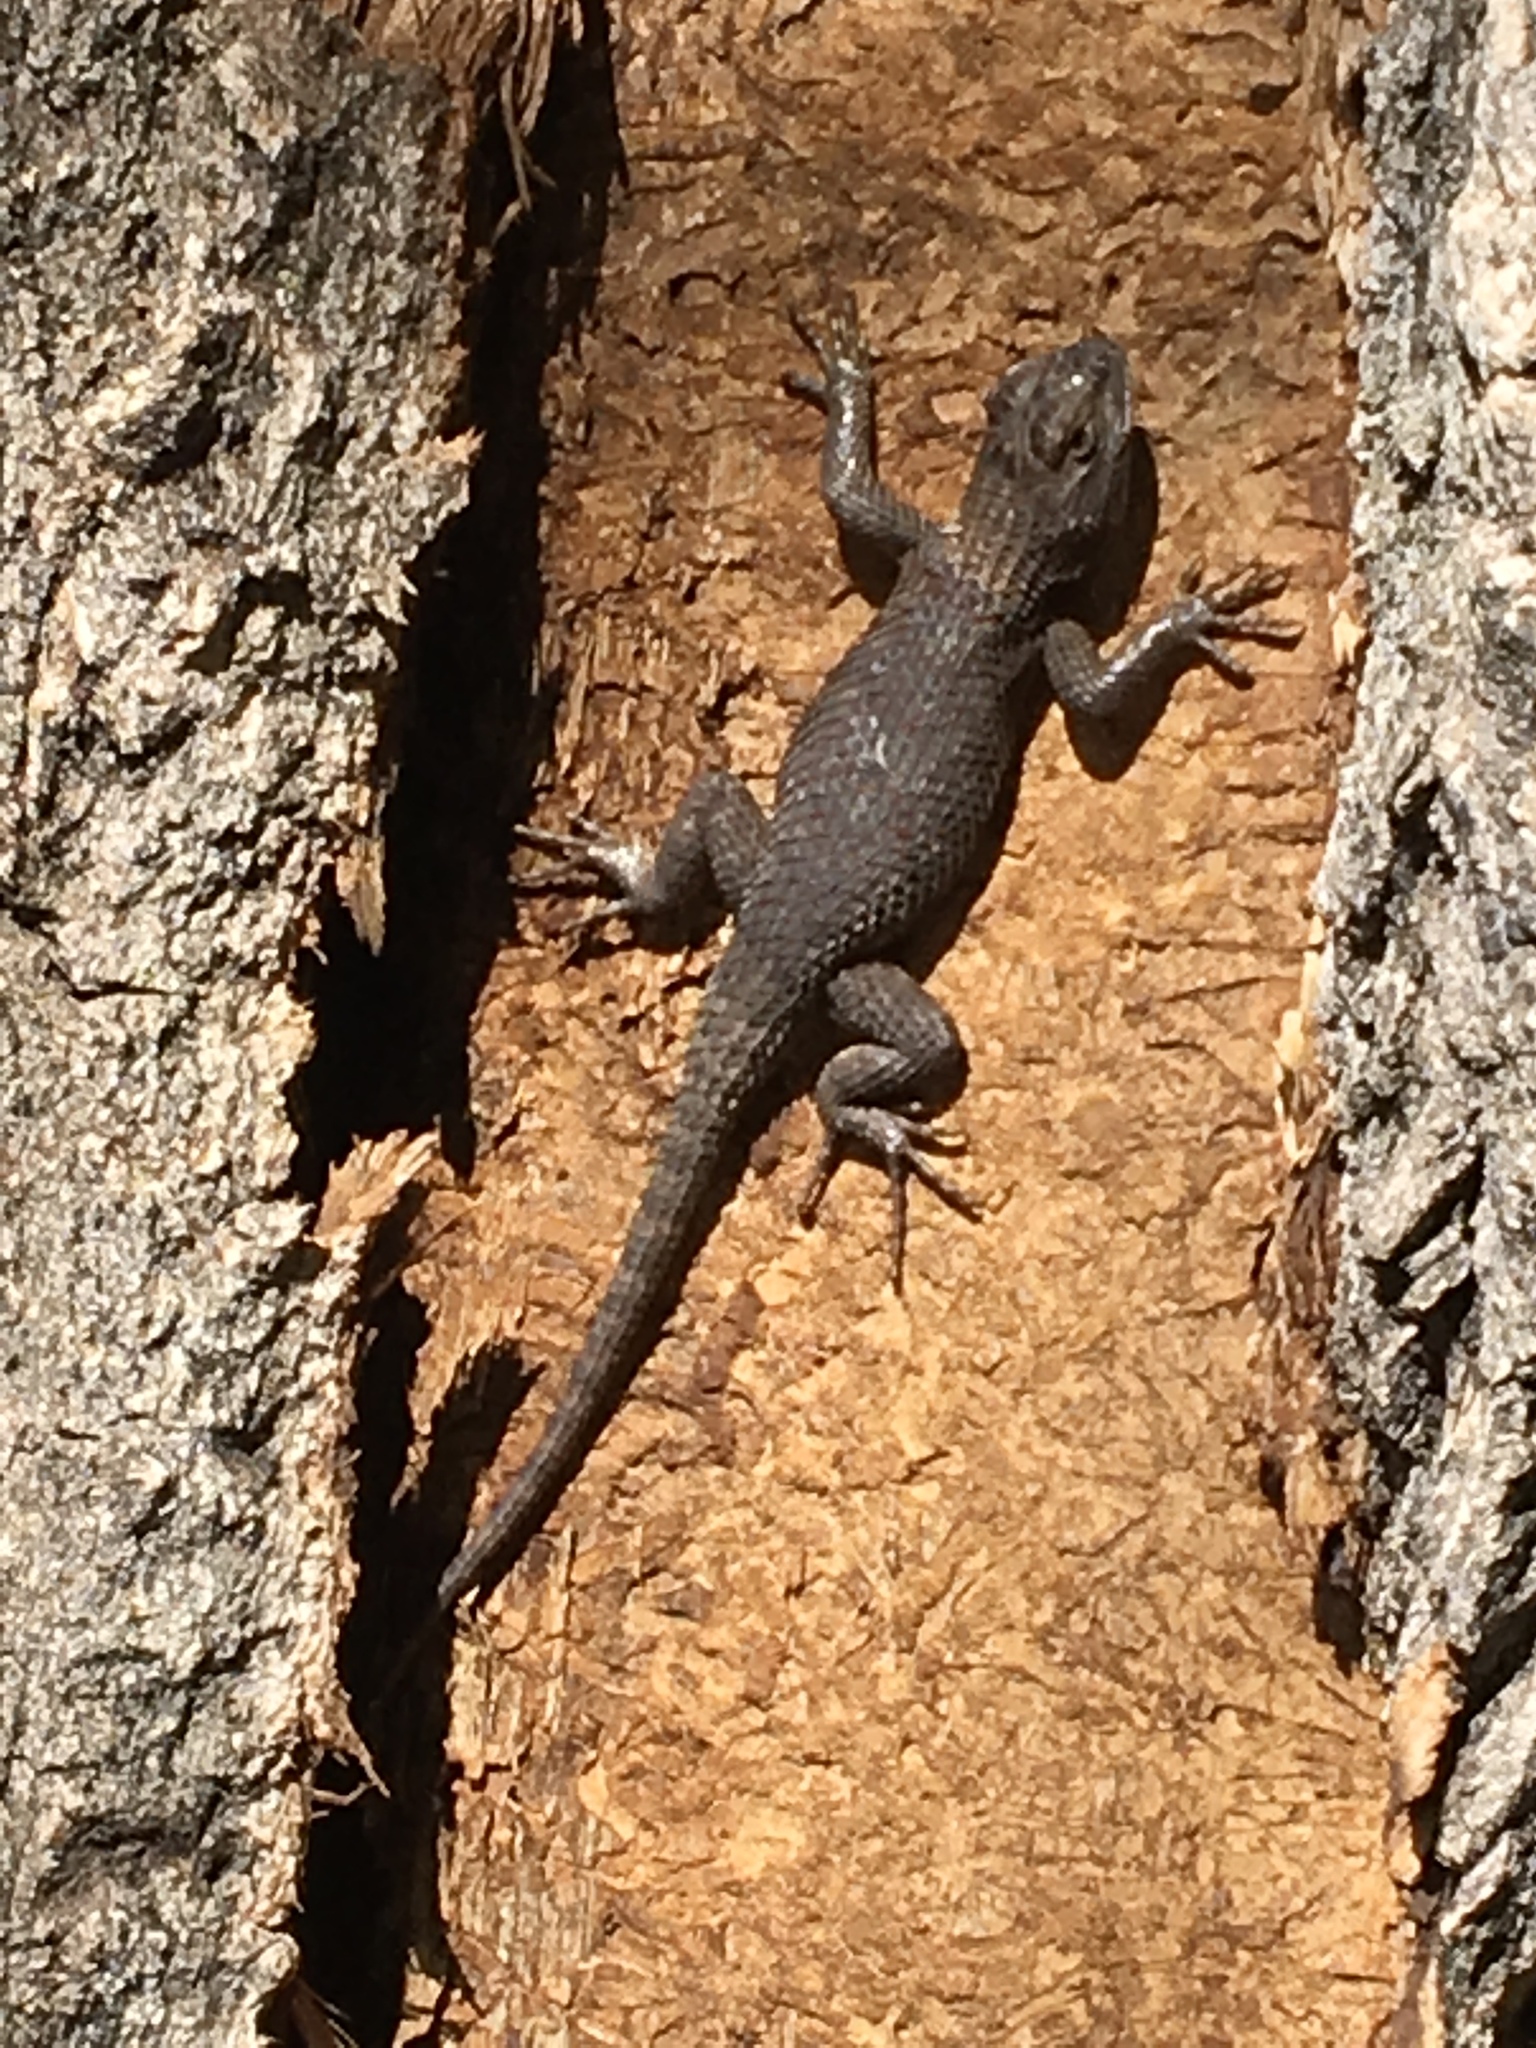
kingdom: Animalia
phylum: Chordata
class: Squamata
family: Phrynosomatidae
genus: Sceloporus
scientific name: Sceloporus tristichus
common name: Plateau fence lizard
